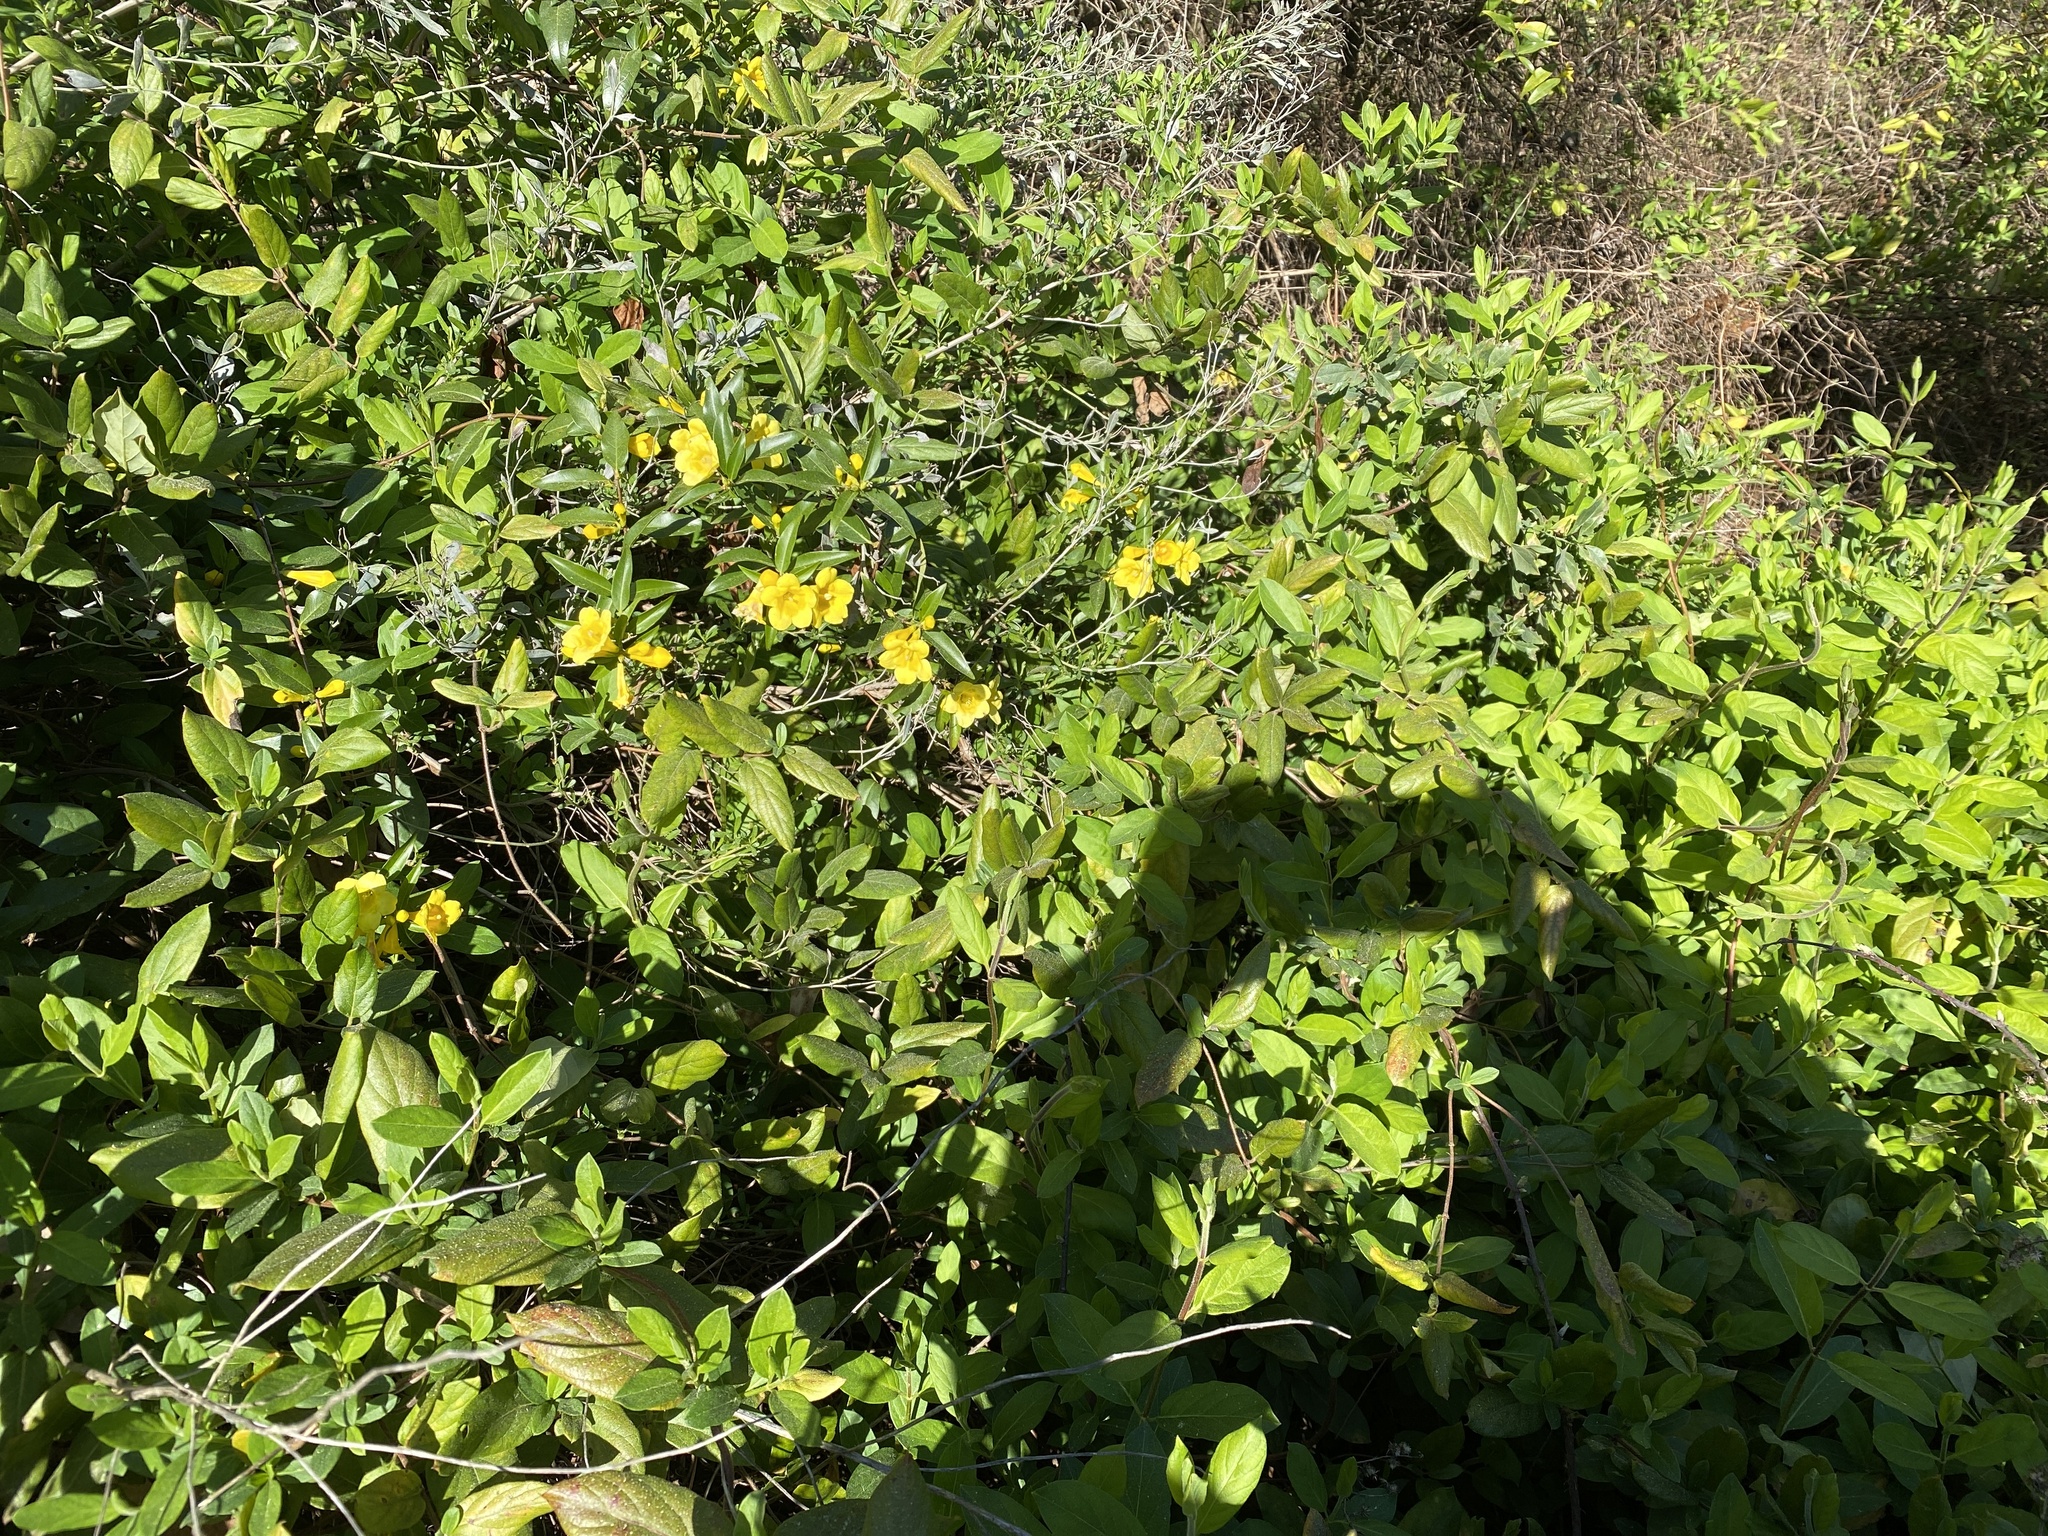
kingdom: Plantae
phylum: Tracheophyta
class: Magnoliopsida
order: Gentianales
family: Gelsemiaceae
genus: Gelsemium
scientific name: Gelsemium sempervirens
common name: Carolina-jasmine
